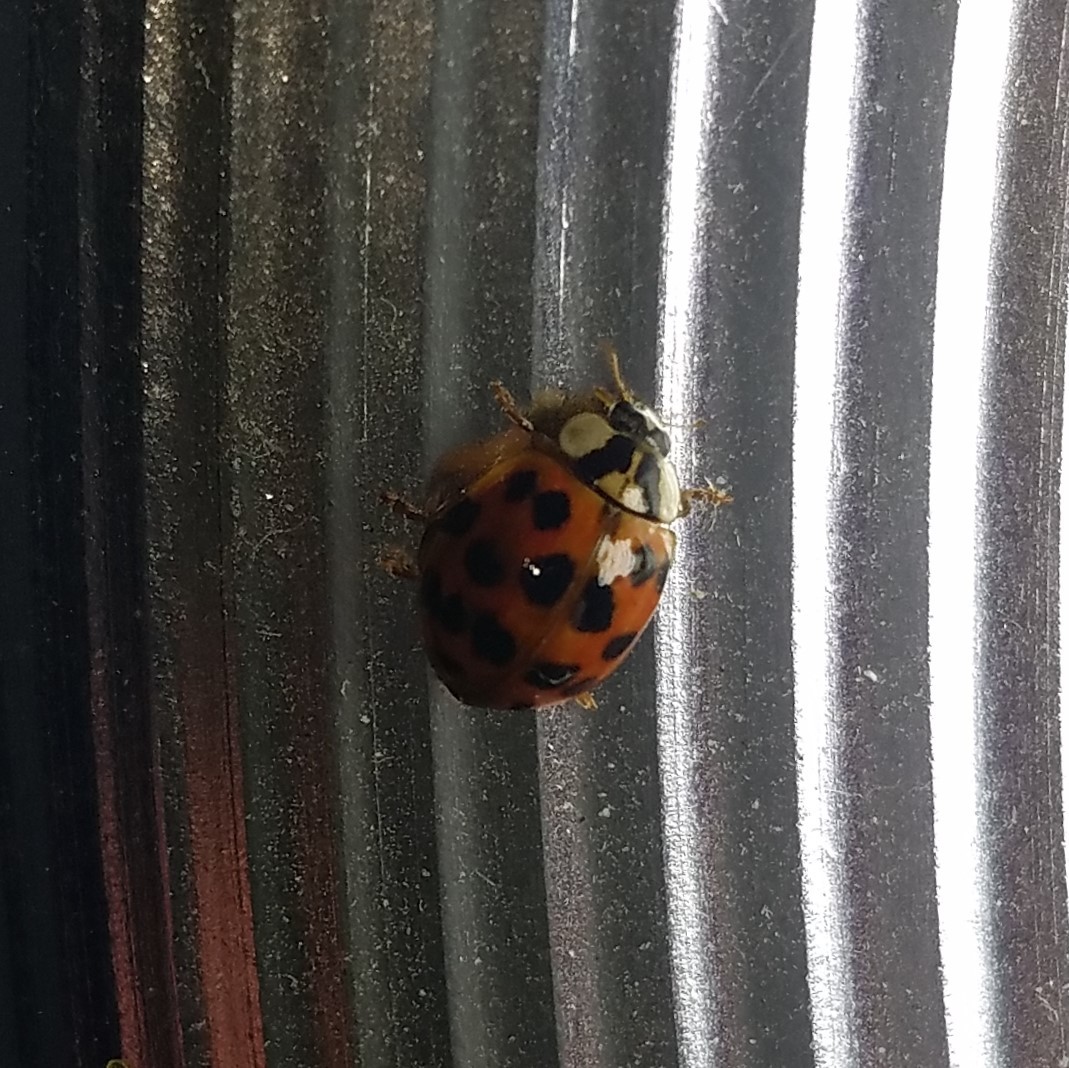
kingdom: Animalia
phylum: Arthropoda
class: Insecta
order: Coleoptera
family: Coccinellidae
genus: Harmonia
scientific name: Harmonia axyridis
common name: Harlequin ladybird
